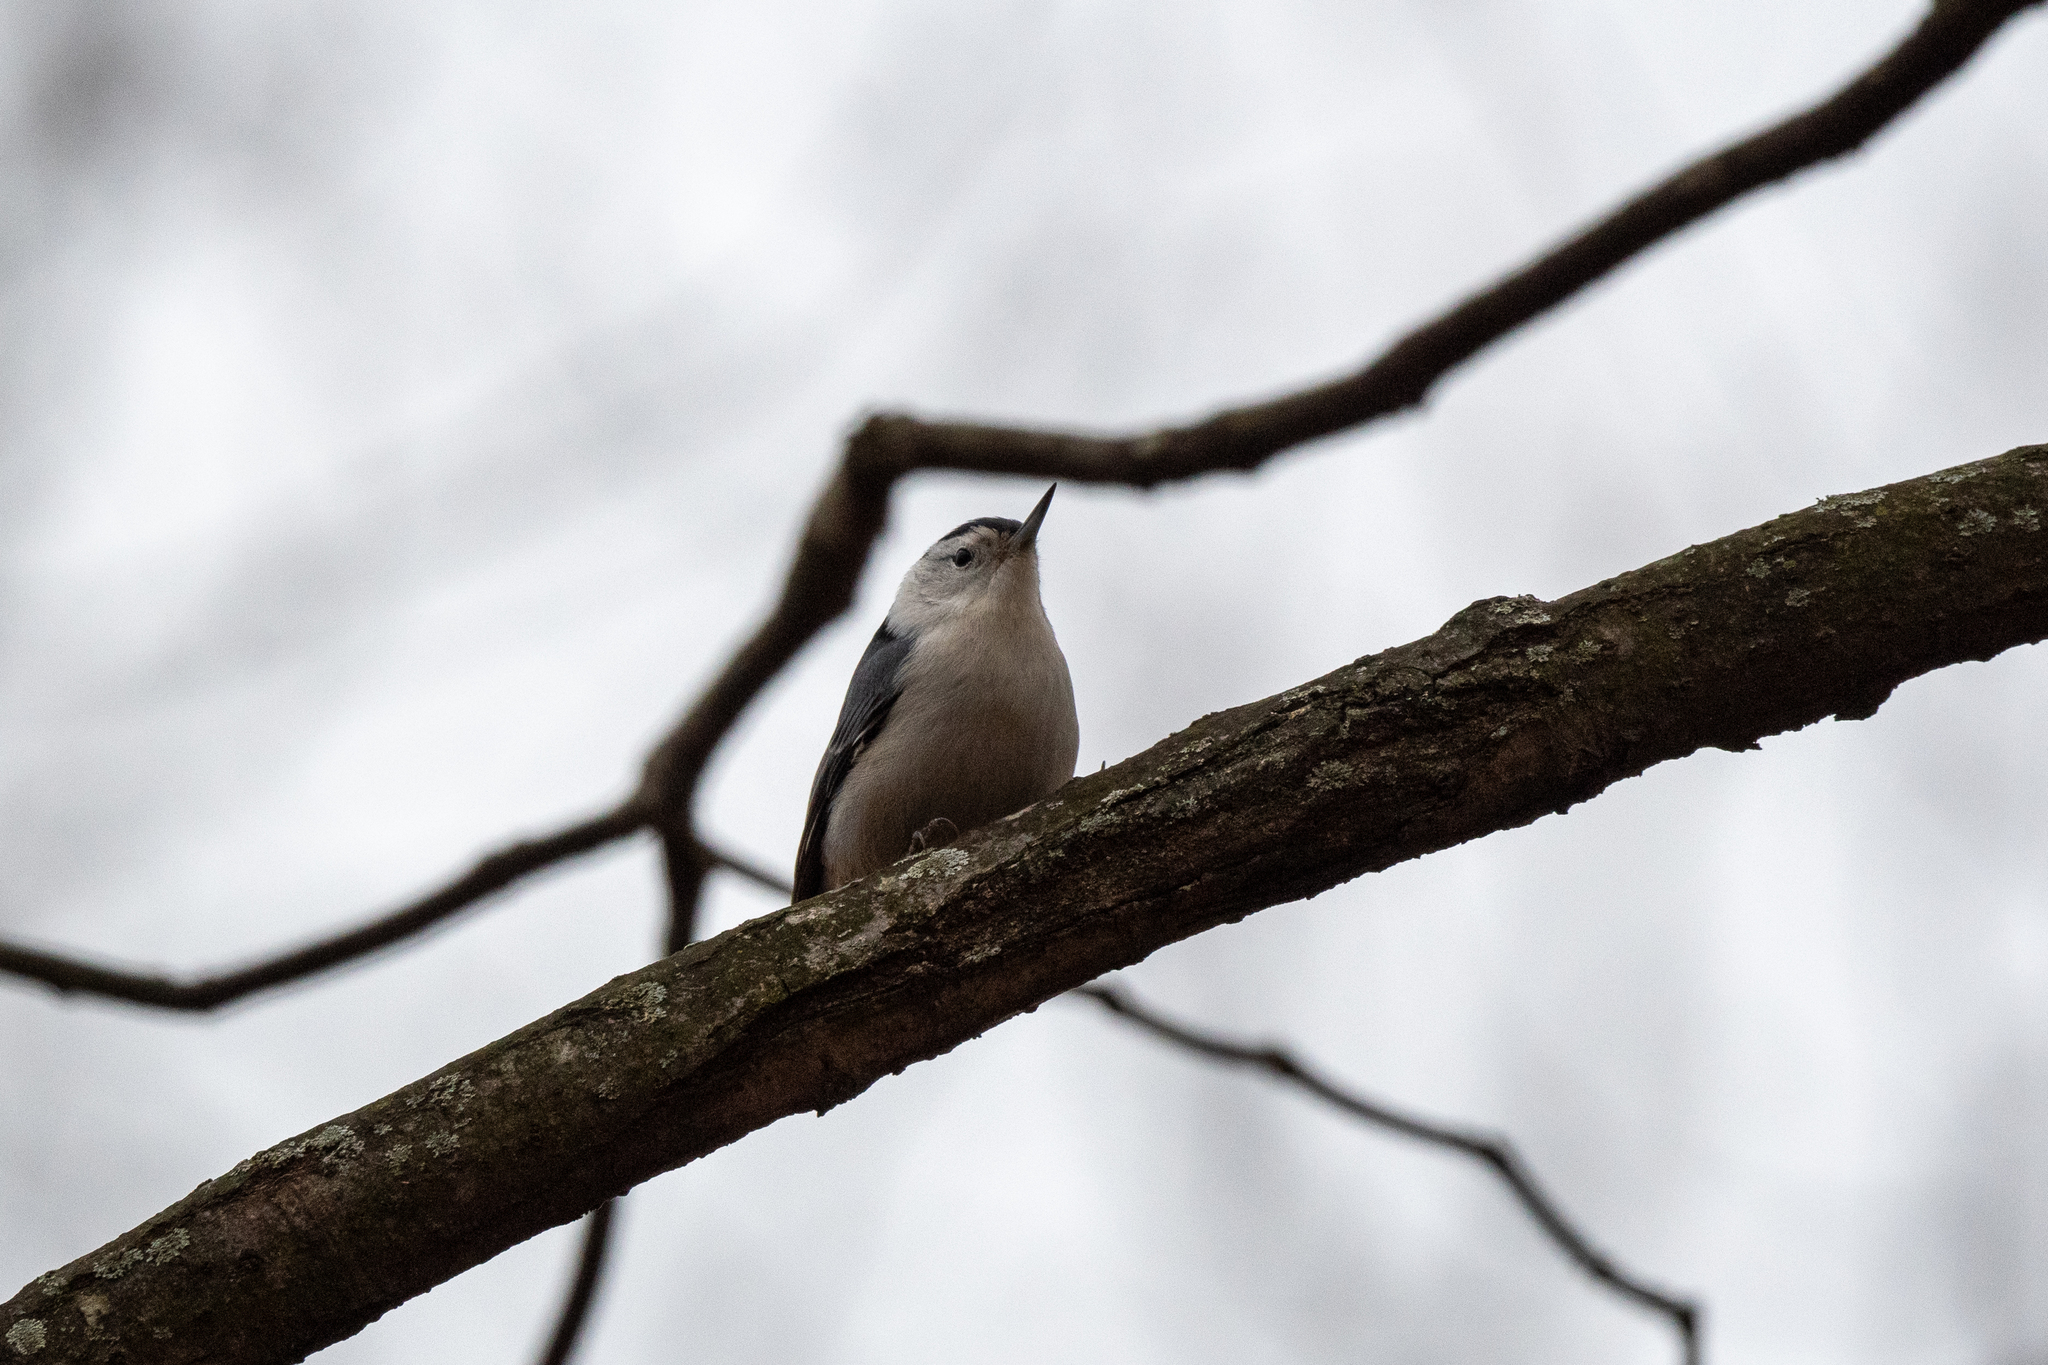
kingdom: Animalia
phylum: Chordata
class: Aves
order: Passeriformes
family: Sittidae
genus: Sitta
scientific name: Sitta carolinensis
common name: White-breasted nuthatch
